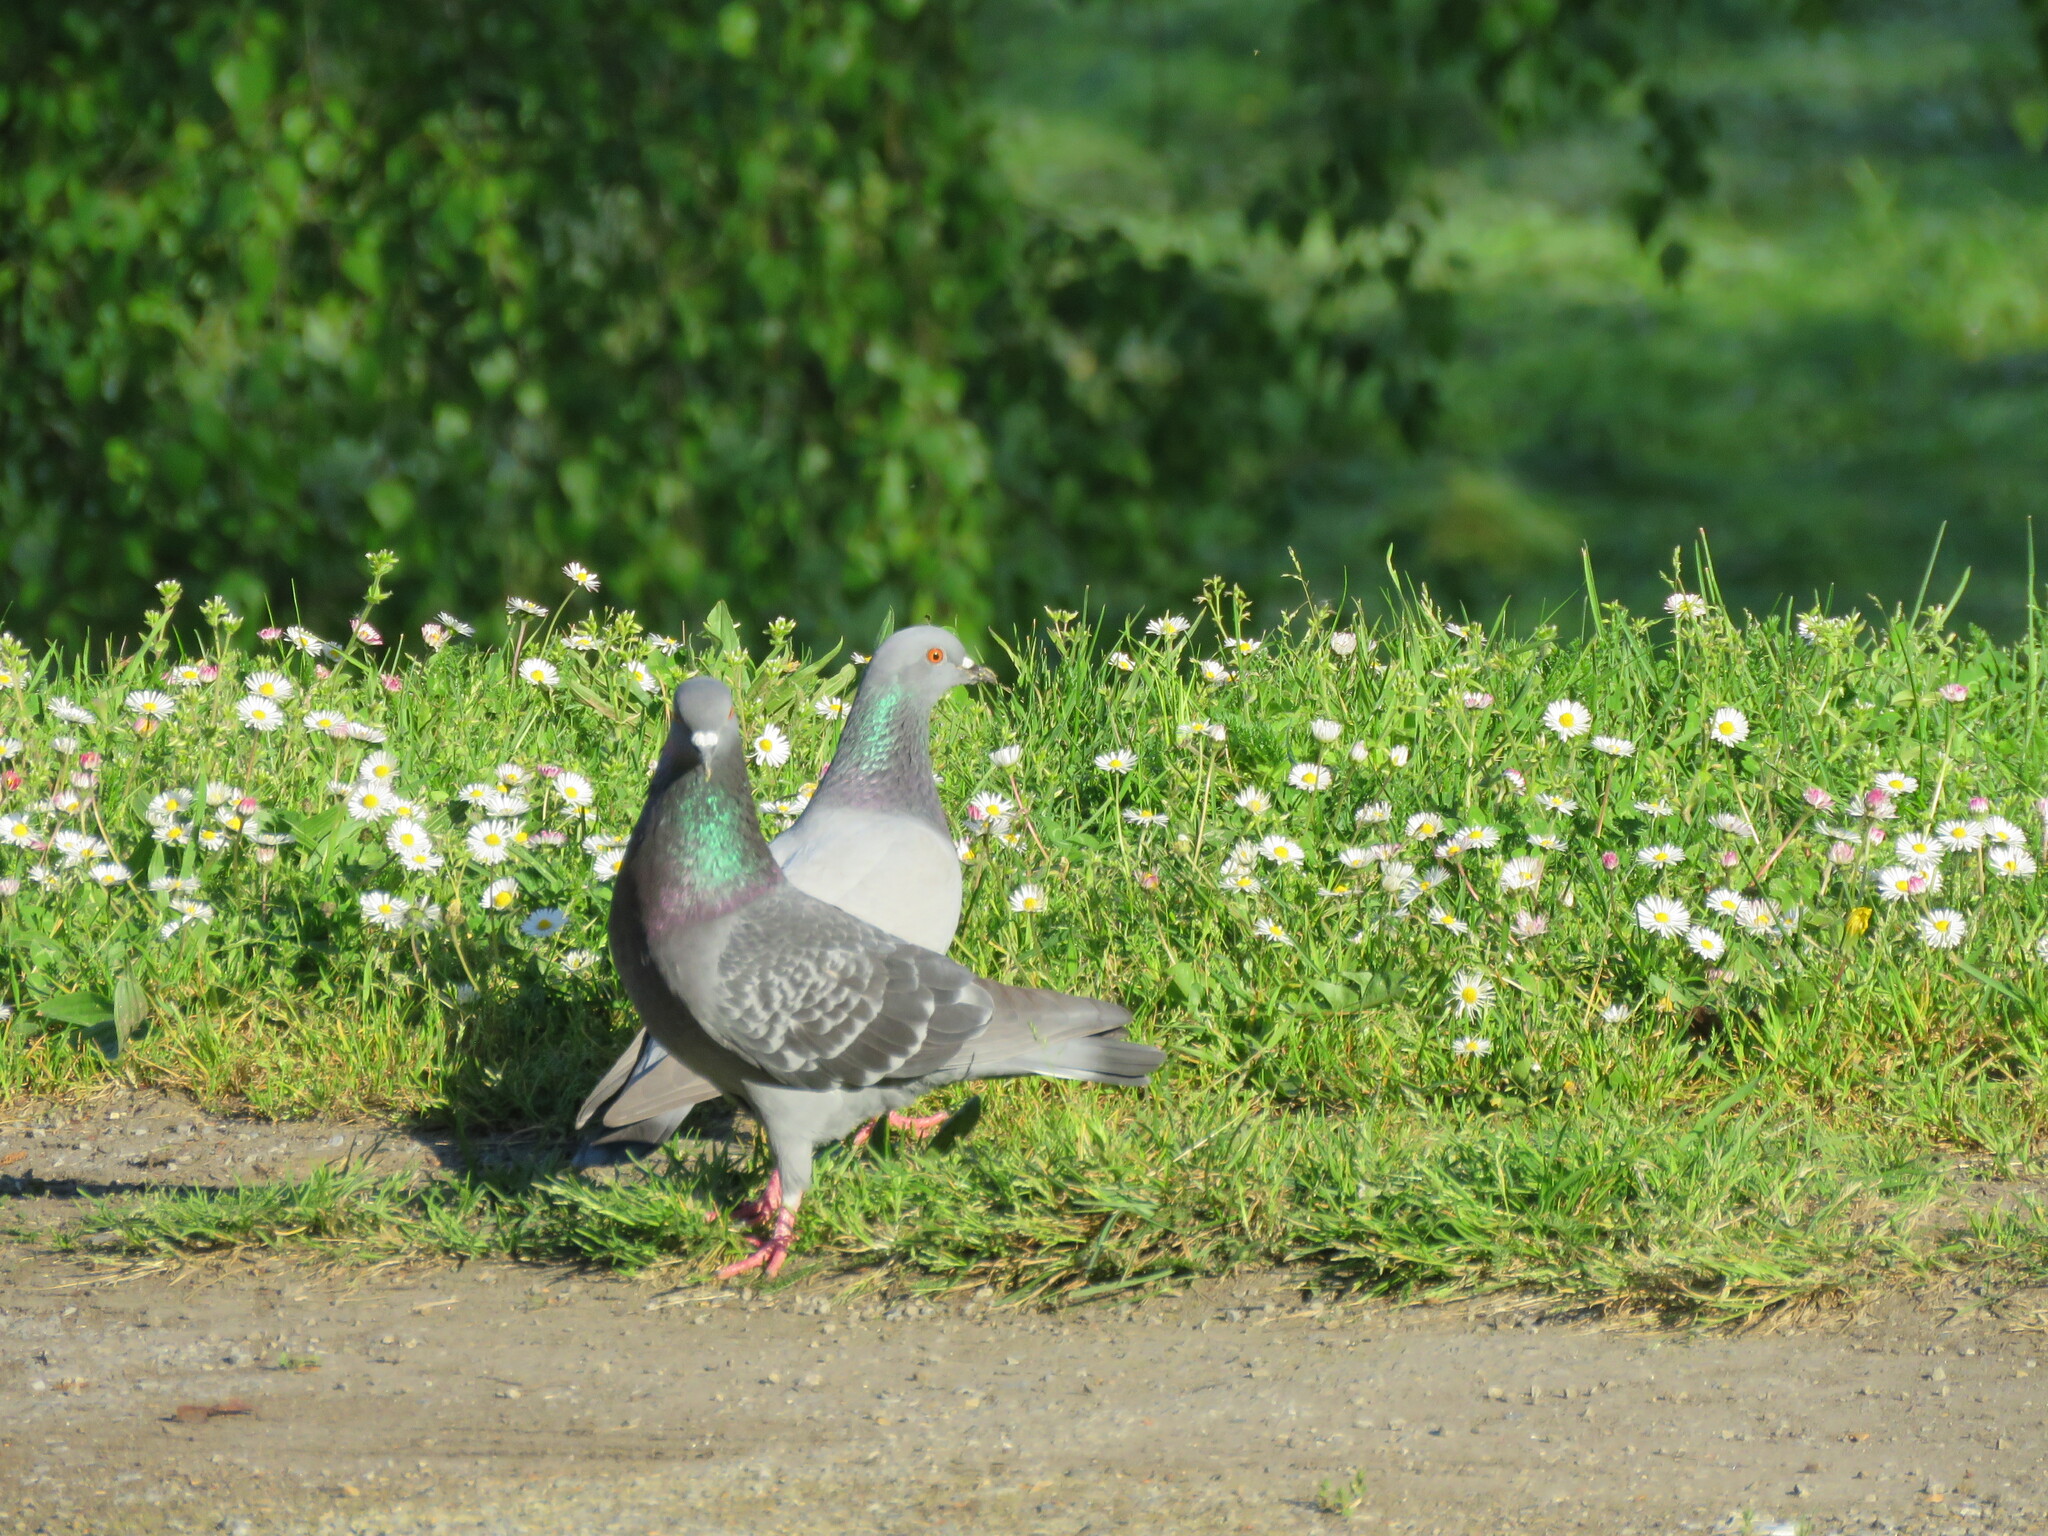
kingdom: Animalia
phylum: Chordata
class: Aves
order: Columbiformes
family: Columbidae
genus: Columba
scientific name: Columba livia
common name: Rock pigeon
